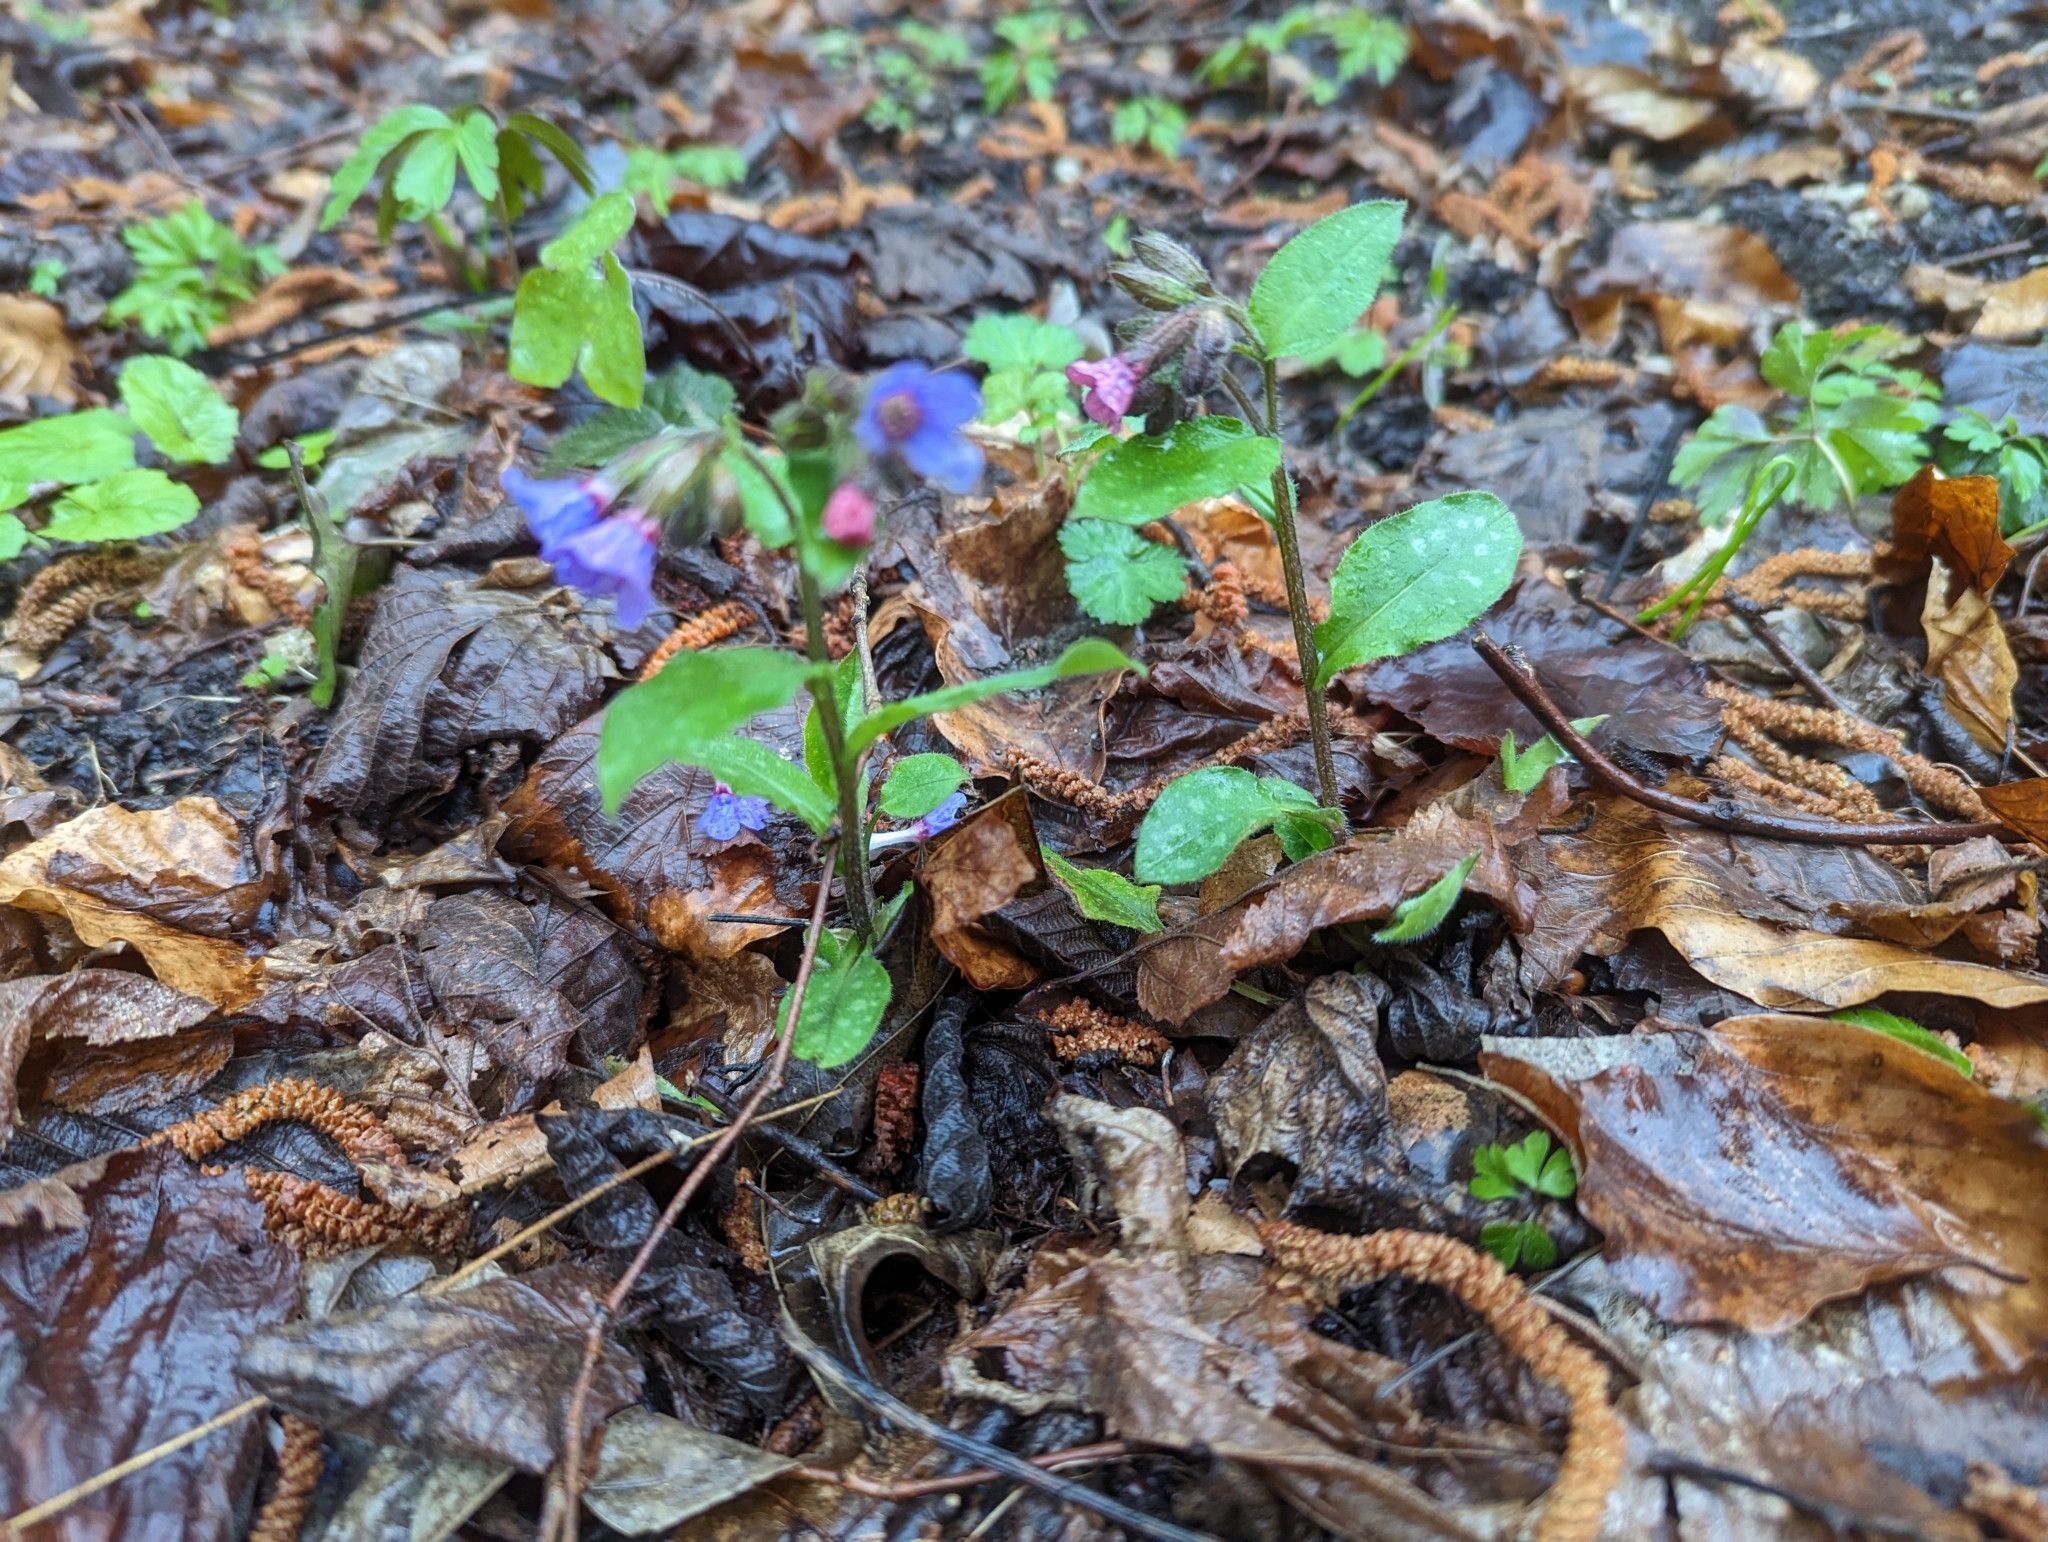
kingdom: Plantae
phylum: Tracheophyta
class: Magnoliopsida
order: Boraginales
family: Boraginaceae
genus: Pulmonaria
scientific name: Pulmonaria officinalis
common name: Lungwort
